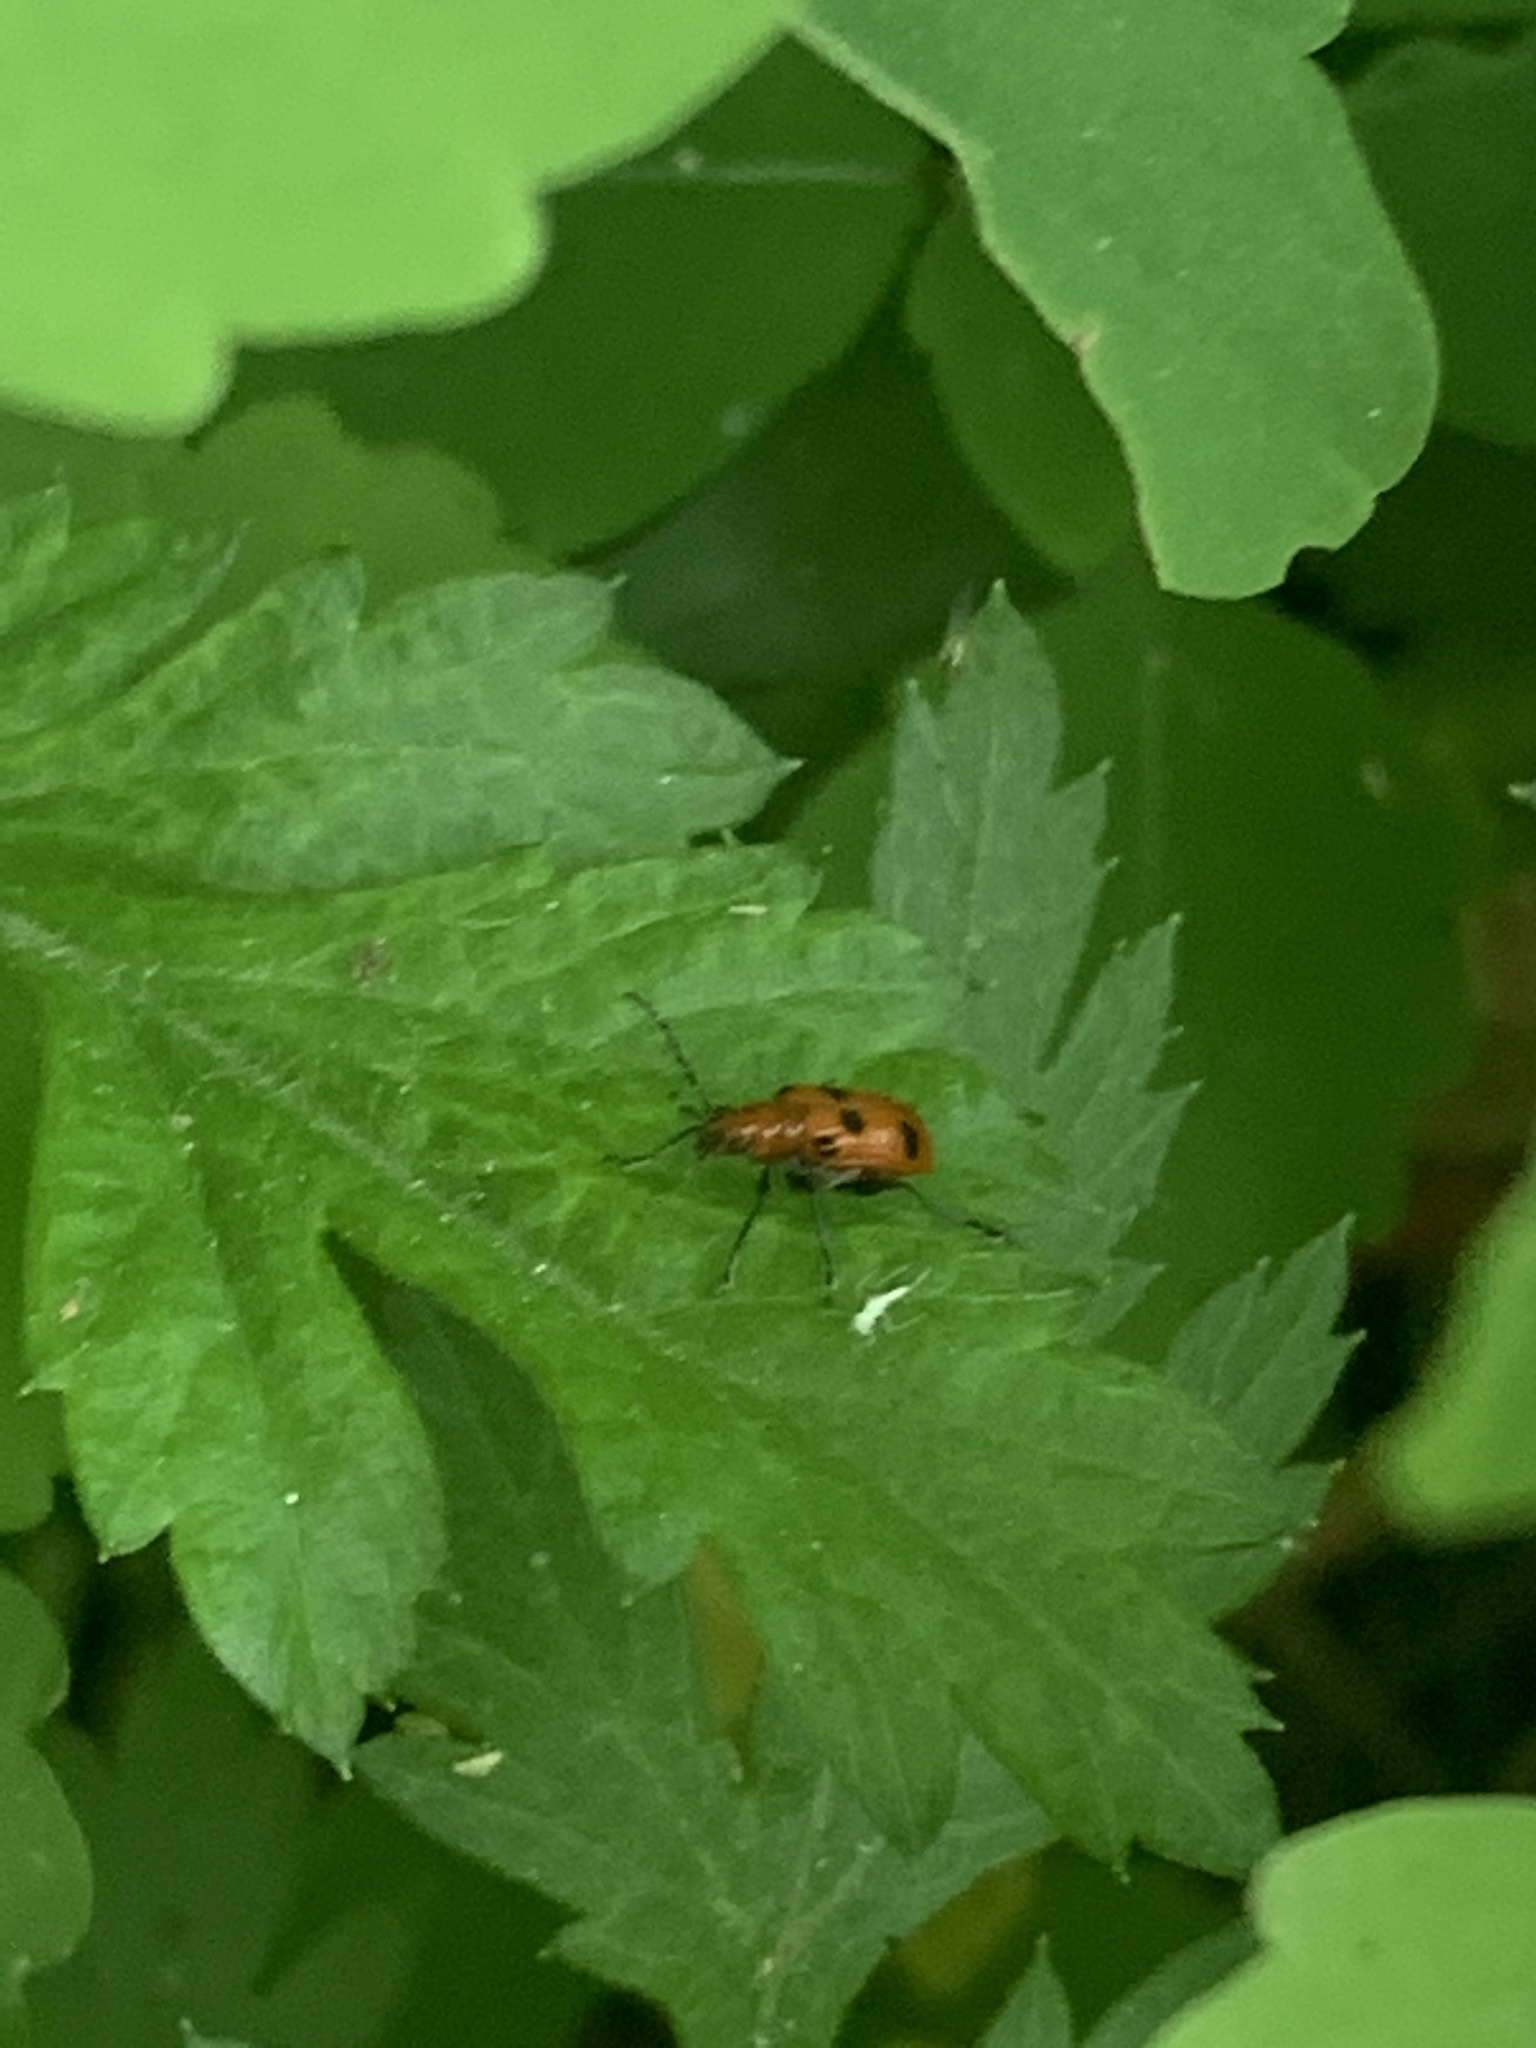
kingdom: Animalia
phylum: Arthropoda
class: Insecta
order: Coleoptera
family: Chrysomelidae
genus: Neolema
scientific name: Neolema sexpunctata
